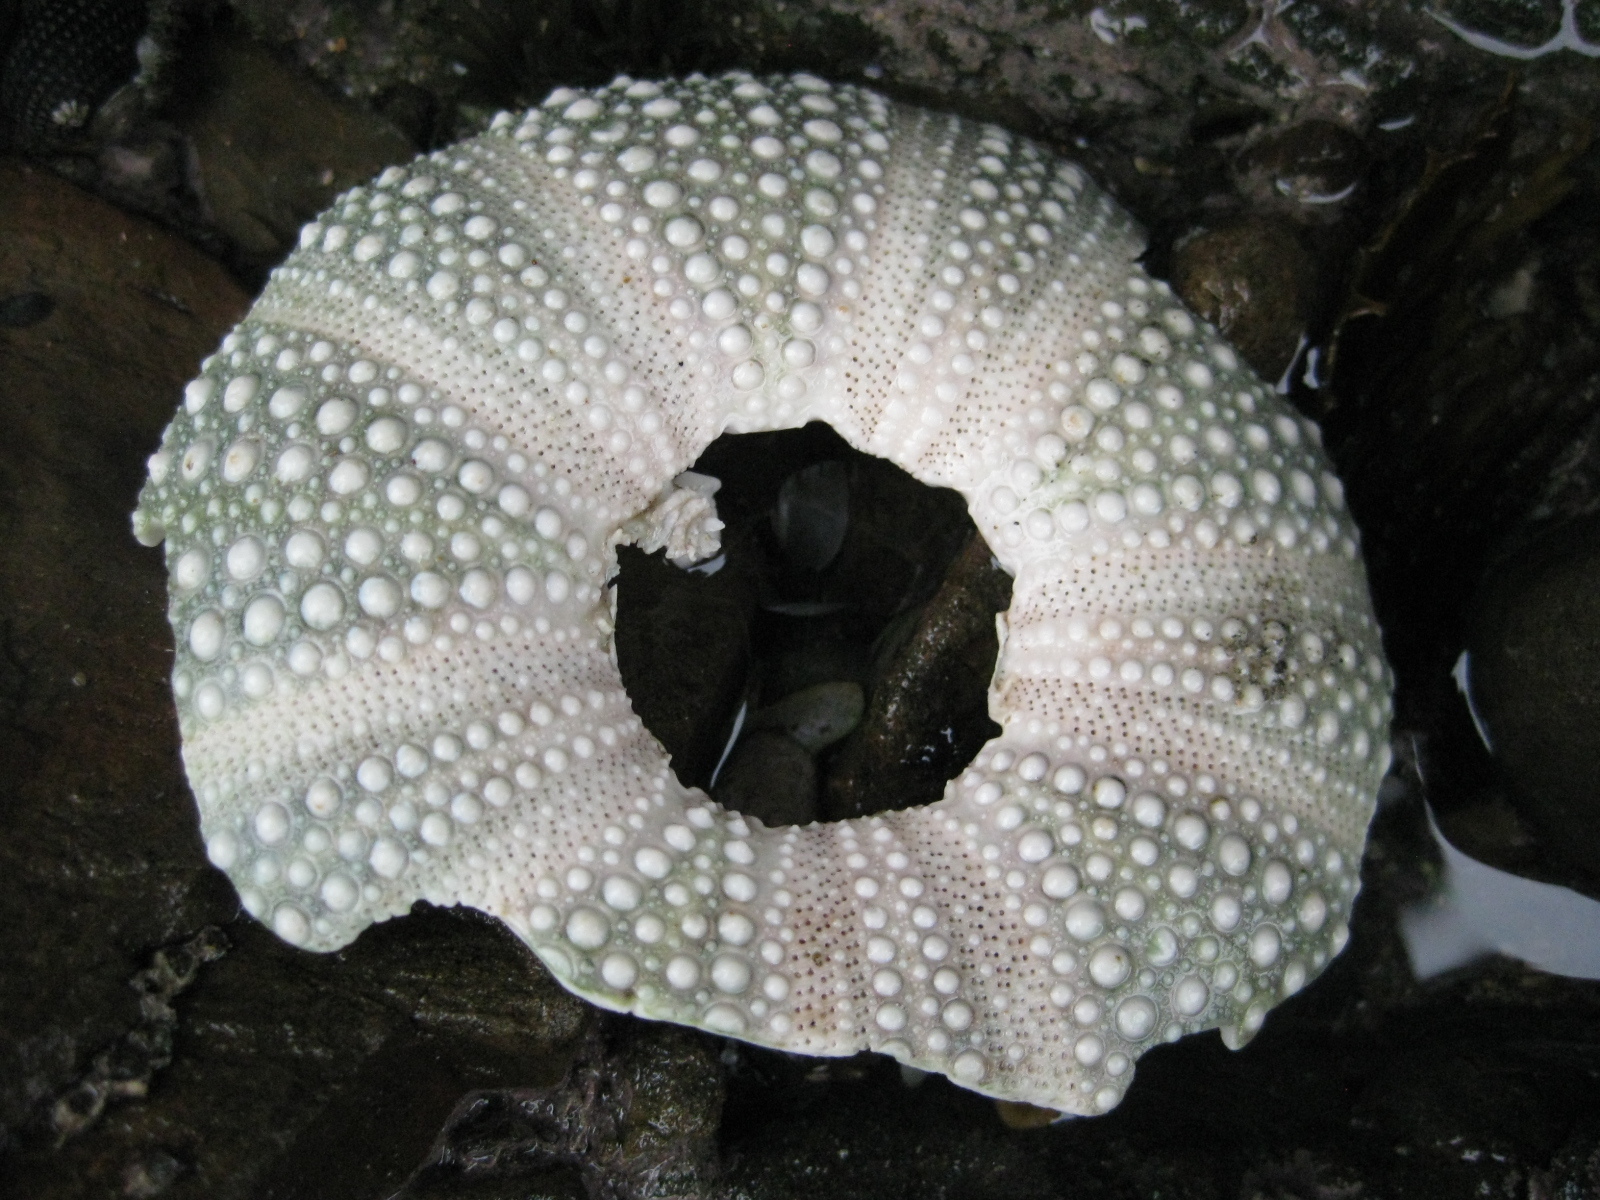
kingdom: Animalia
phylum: Echinodermata
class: Echinoidea
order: Camarodonta
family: Echinometridae
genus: Evechinus
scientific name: Evechinus chloroticus
